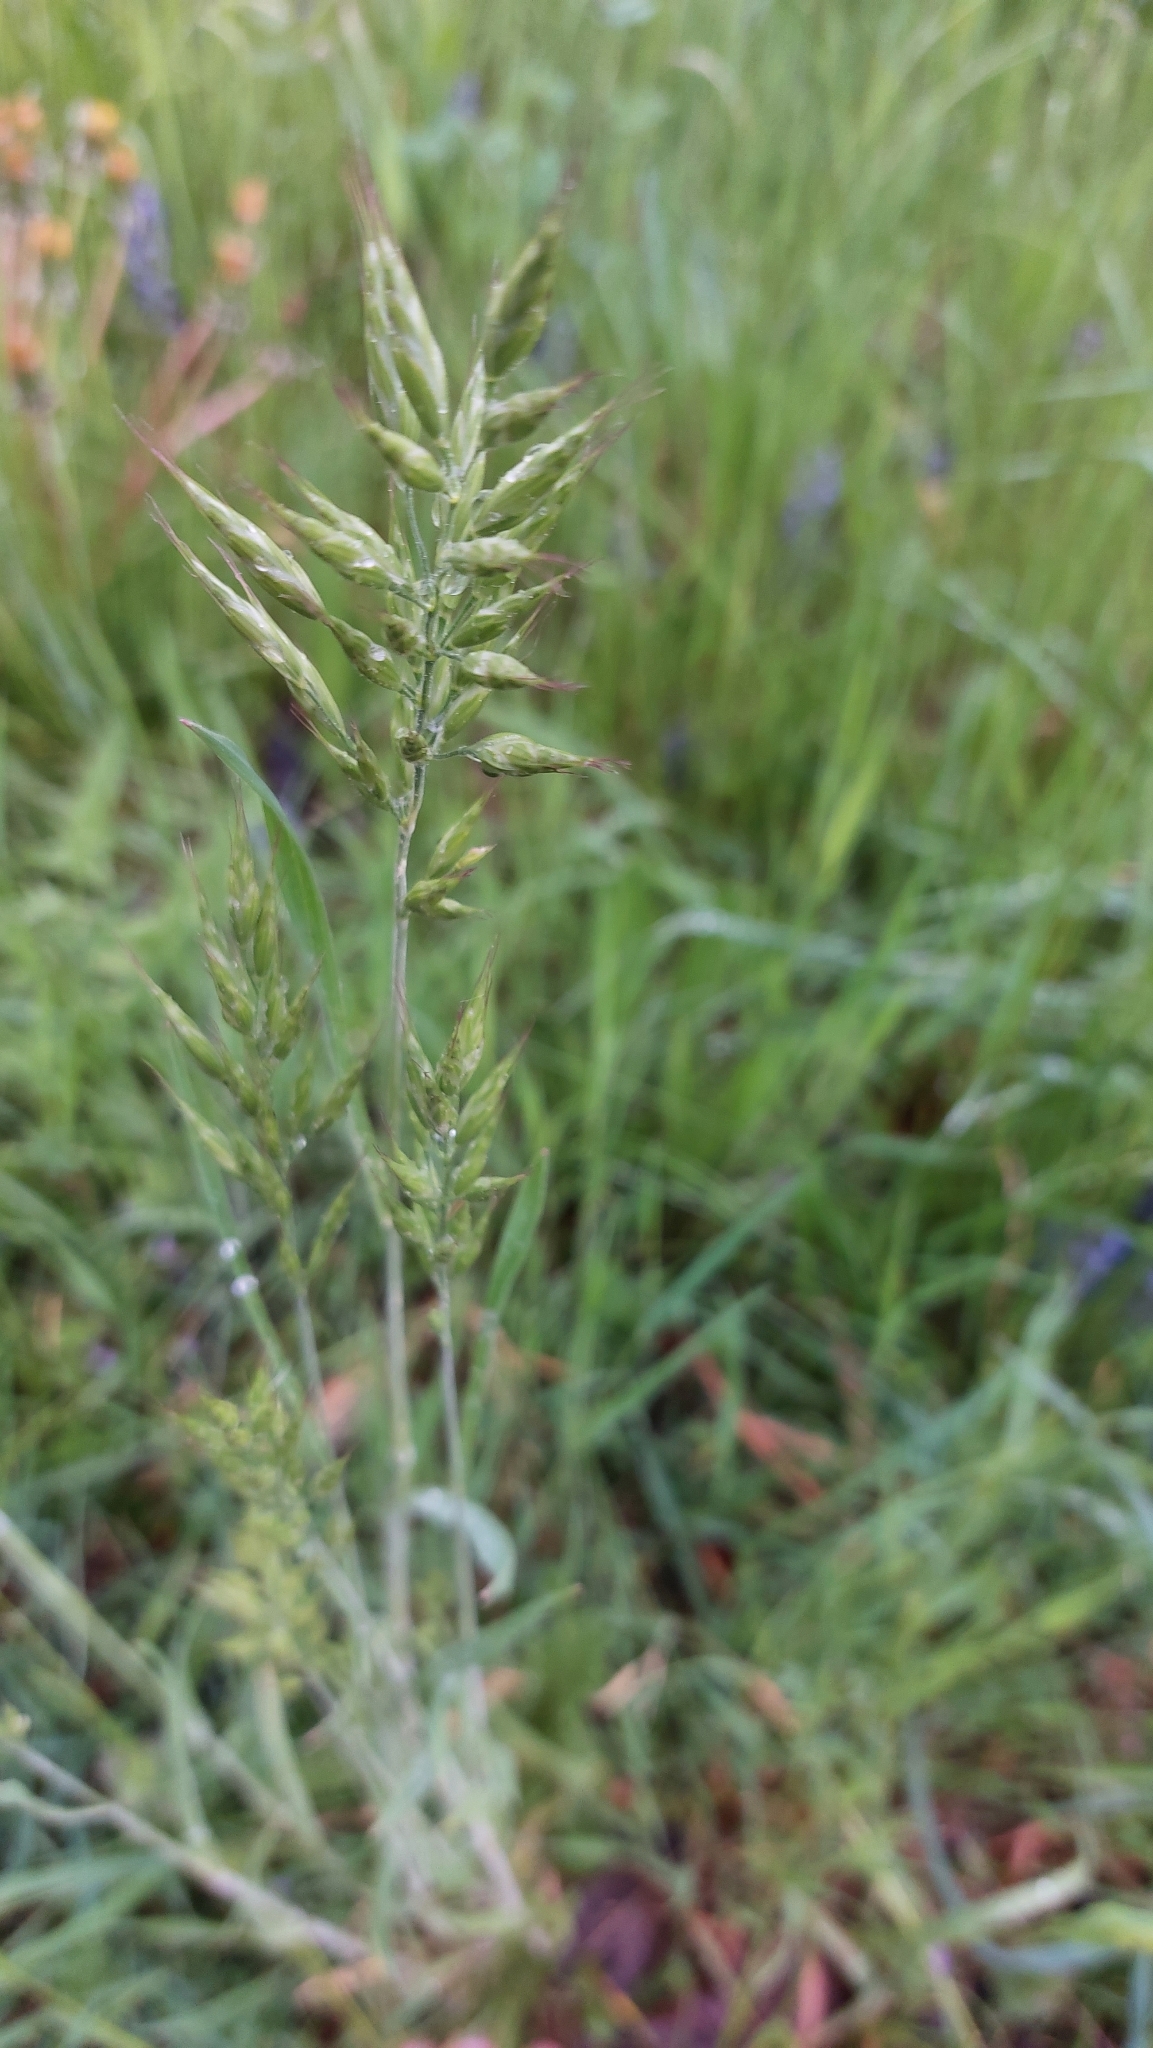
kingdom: Plantae
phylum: Tracheophyta
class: Liliopsida
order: Poales
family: Poaceae
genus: Bromus
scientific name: Bromus hordeaceus
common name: Soft brome
